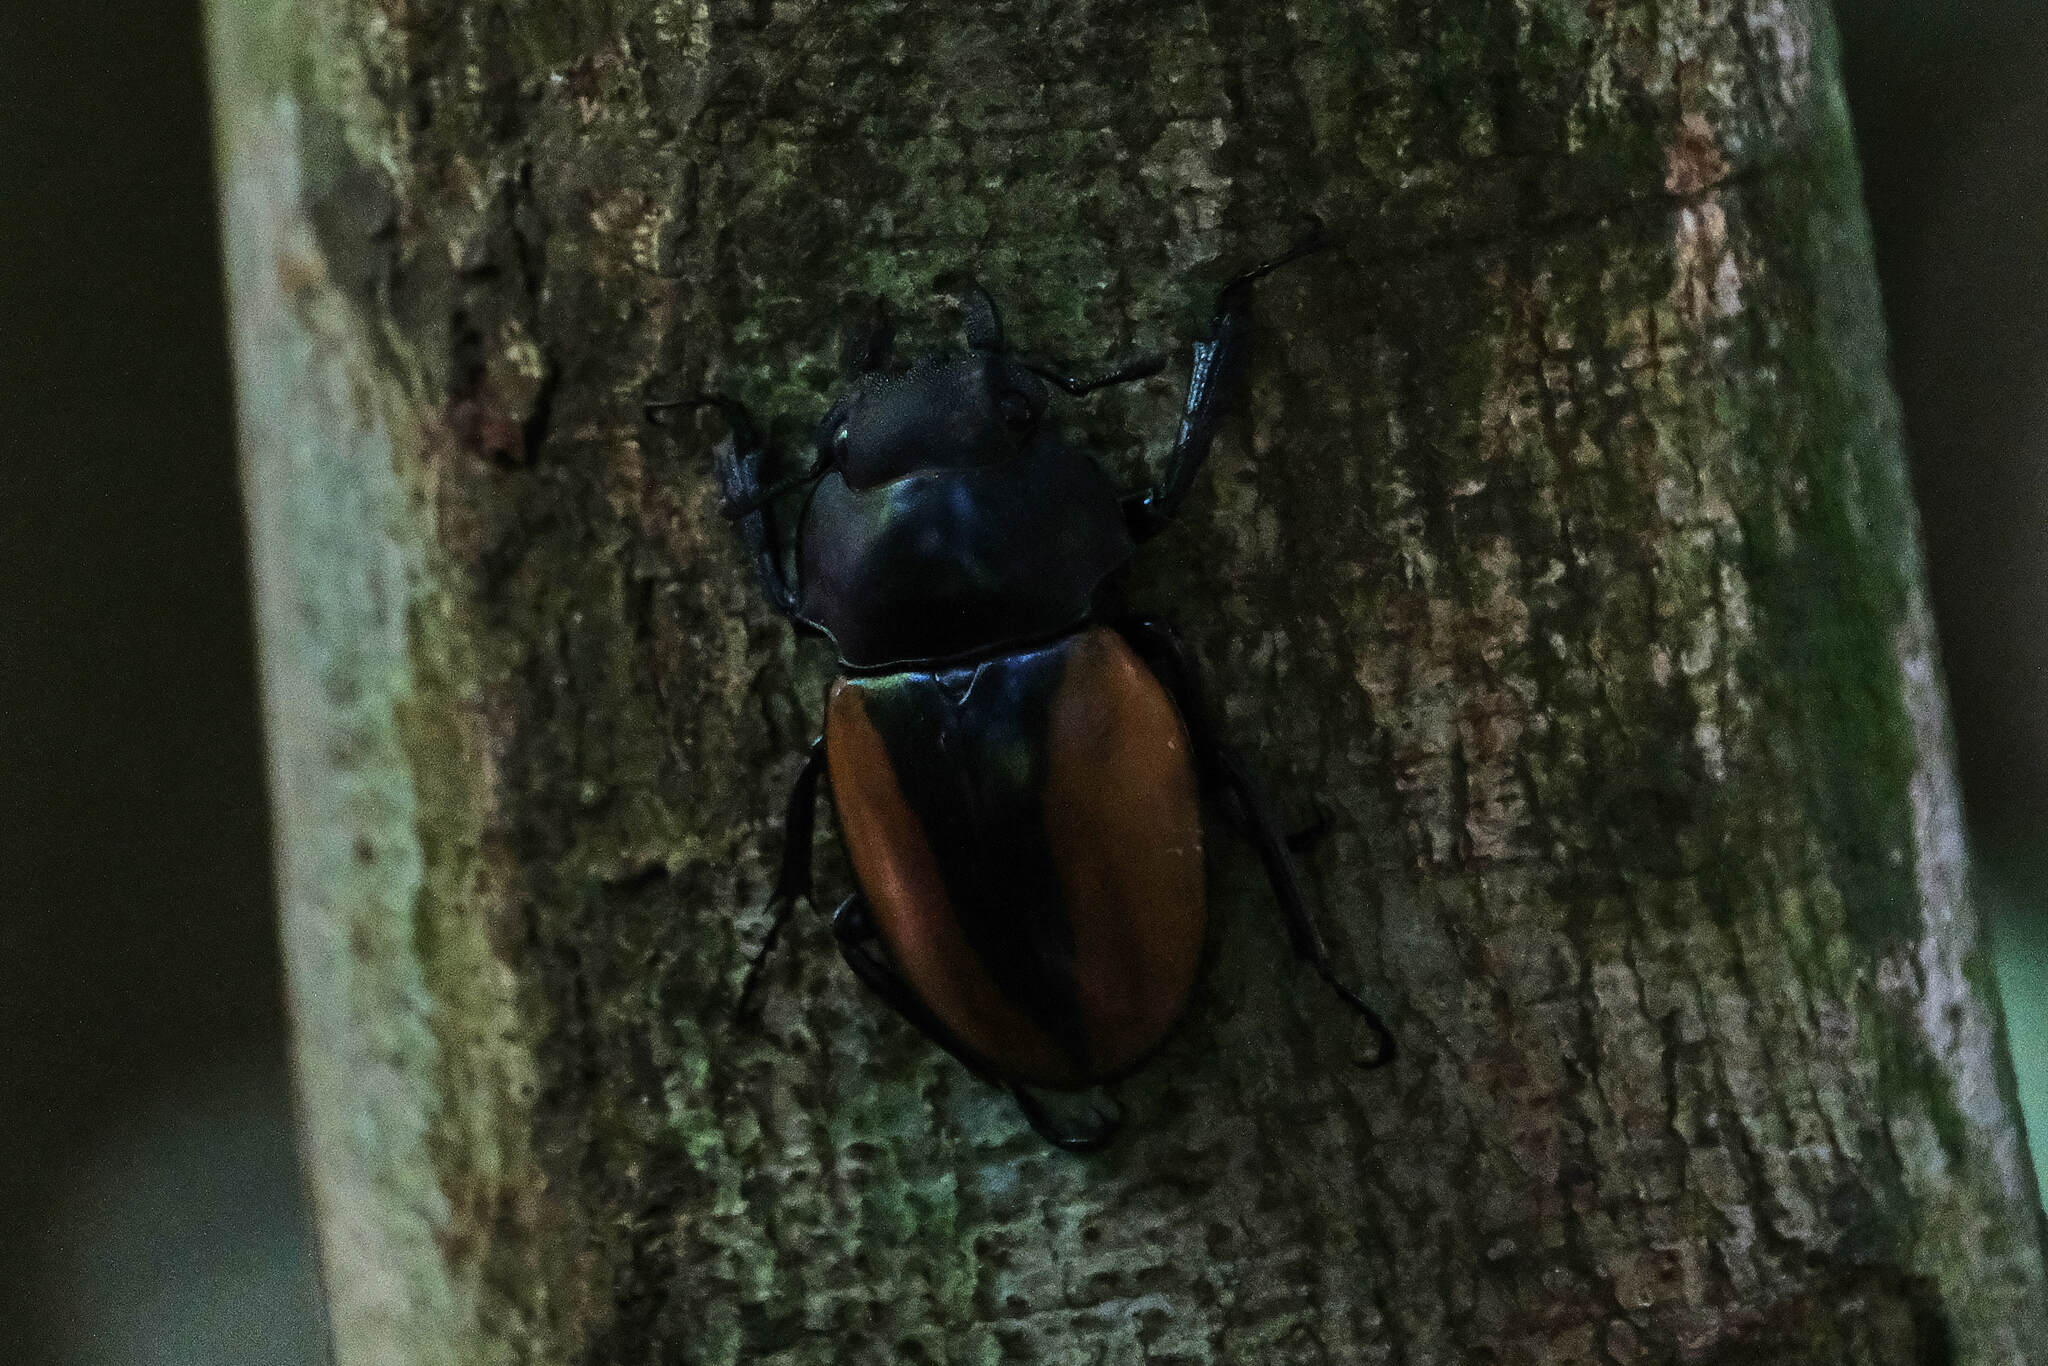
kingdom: Animalia
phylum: Arthropoda
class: Insecta
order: Coleoptera
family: Lucanidae
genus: Odontolabis
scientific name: Odontolabis mouhoti
